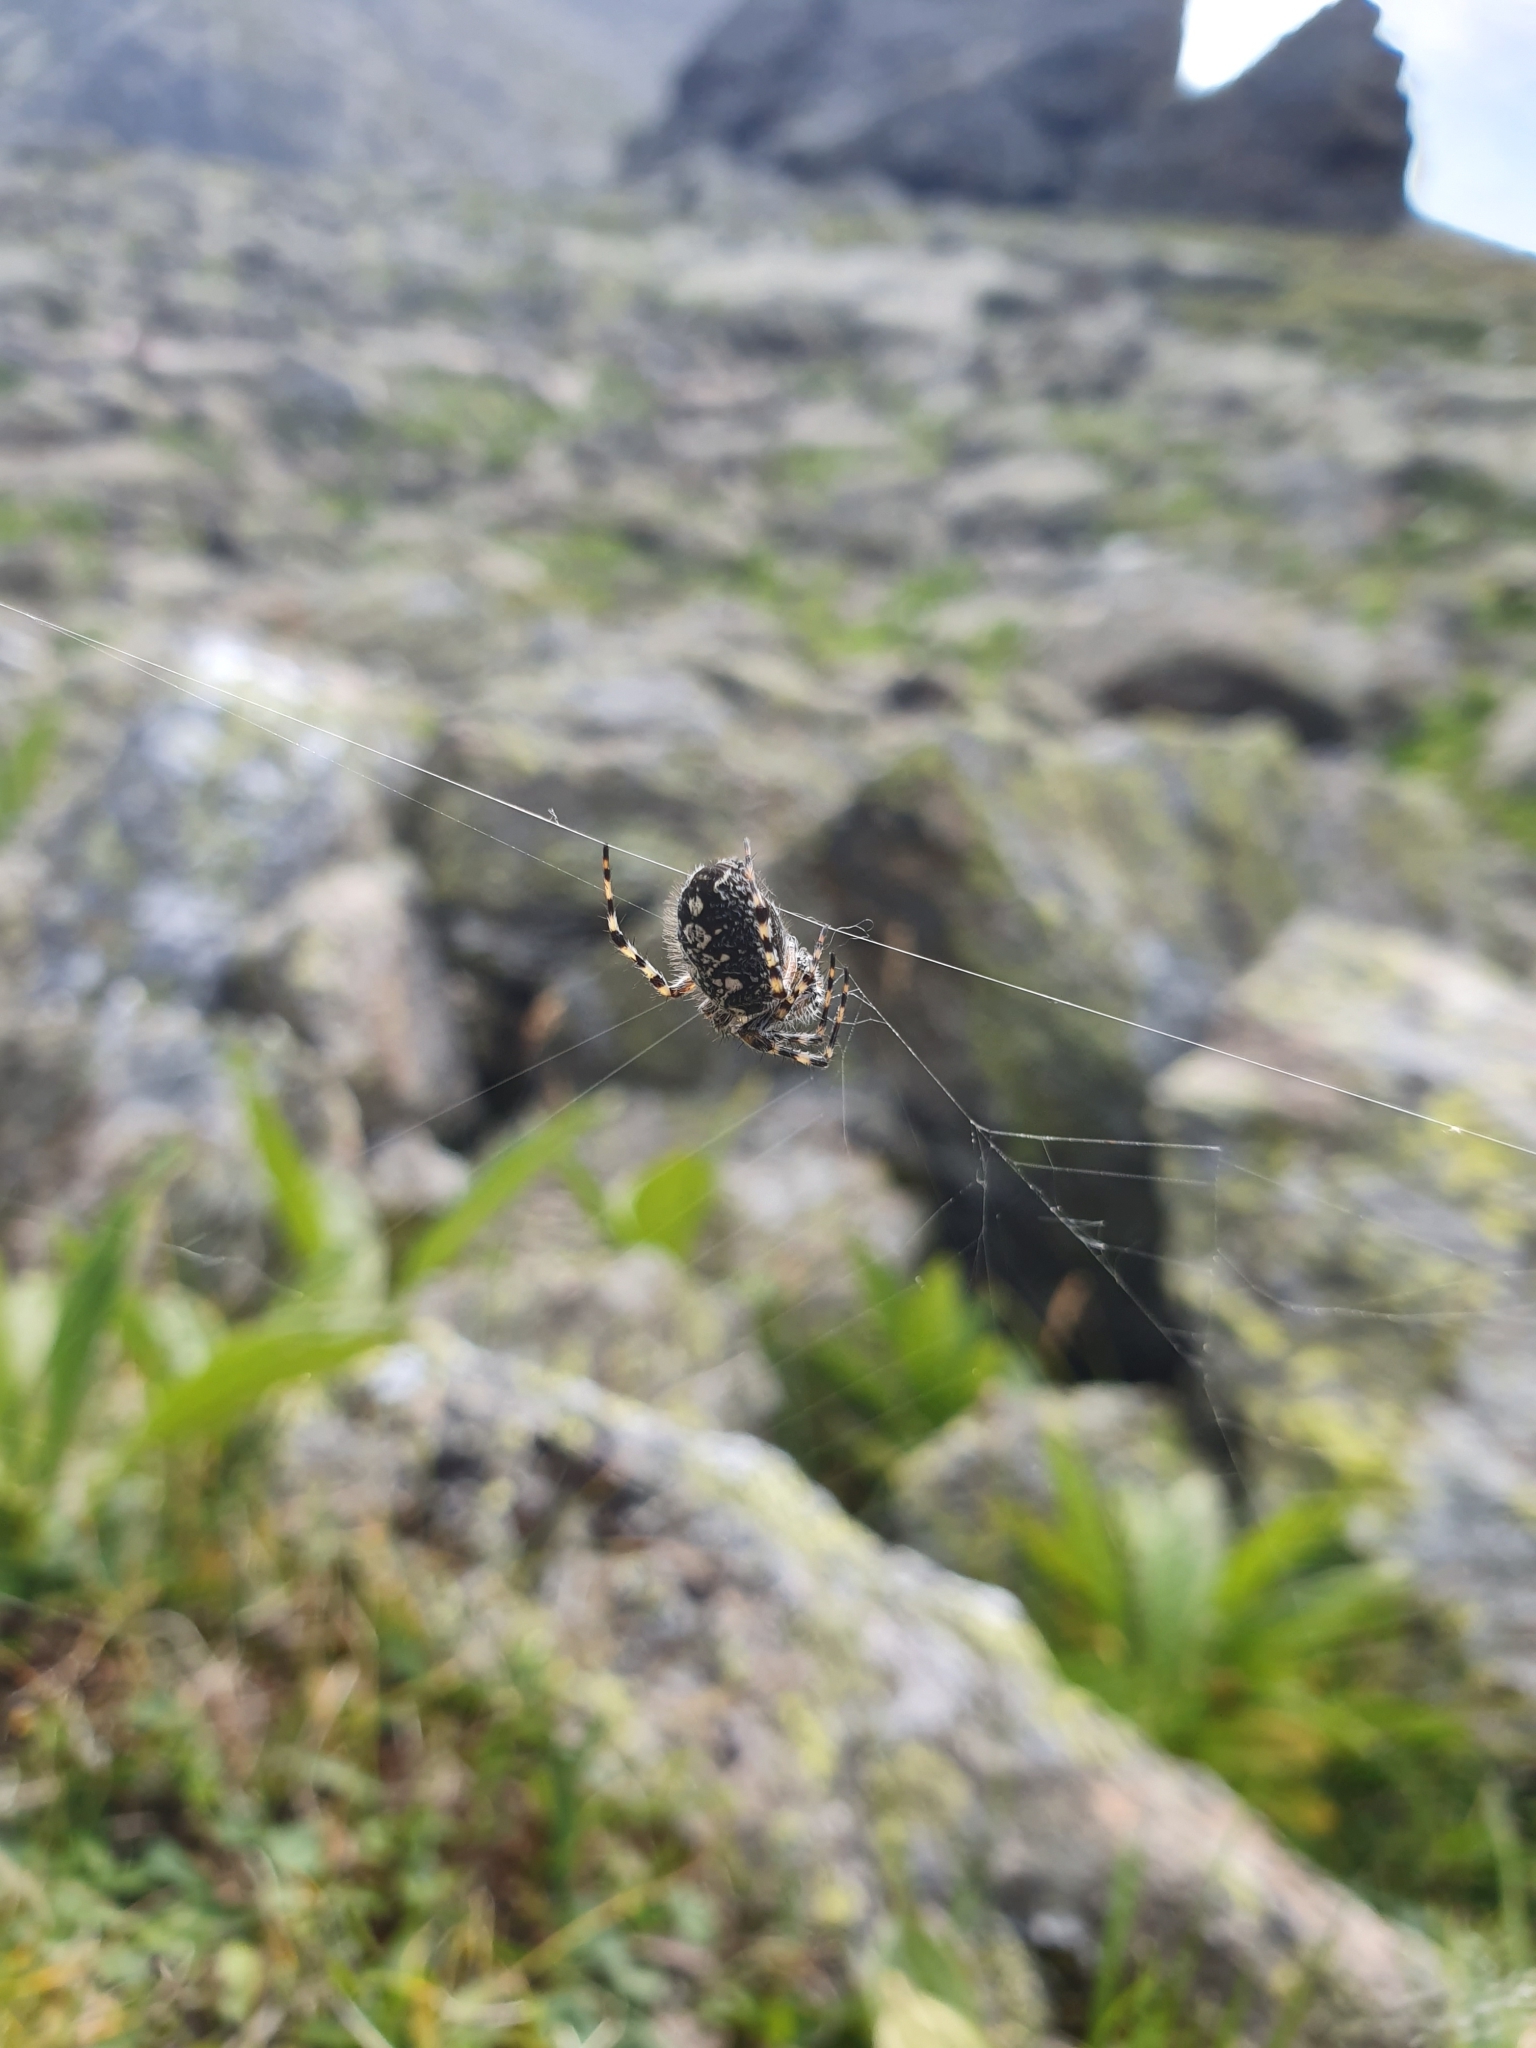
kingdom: Animalia
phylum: Arthropoda
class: Arachnida
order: Araneae
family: Araneidae
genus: Aculepeira
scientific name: Aculepeira carbonaria
